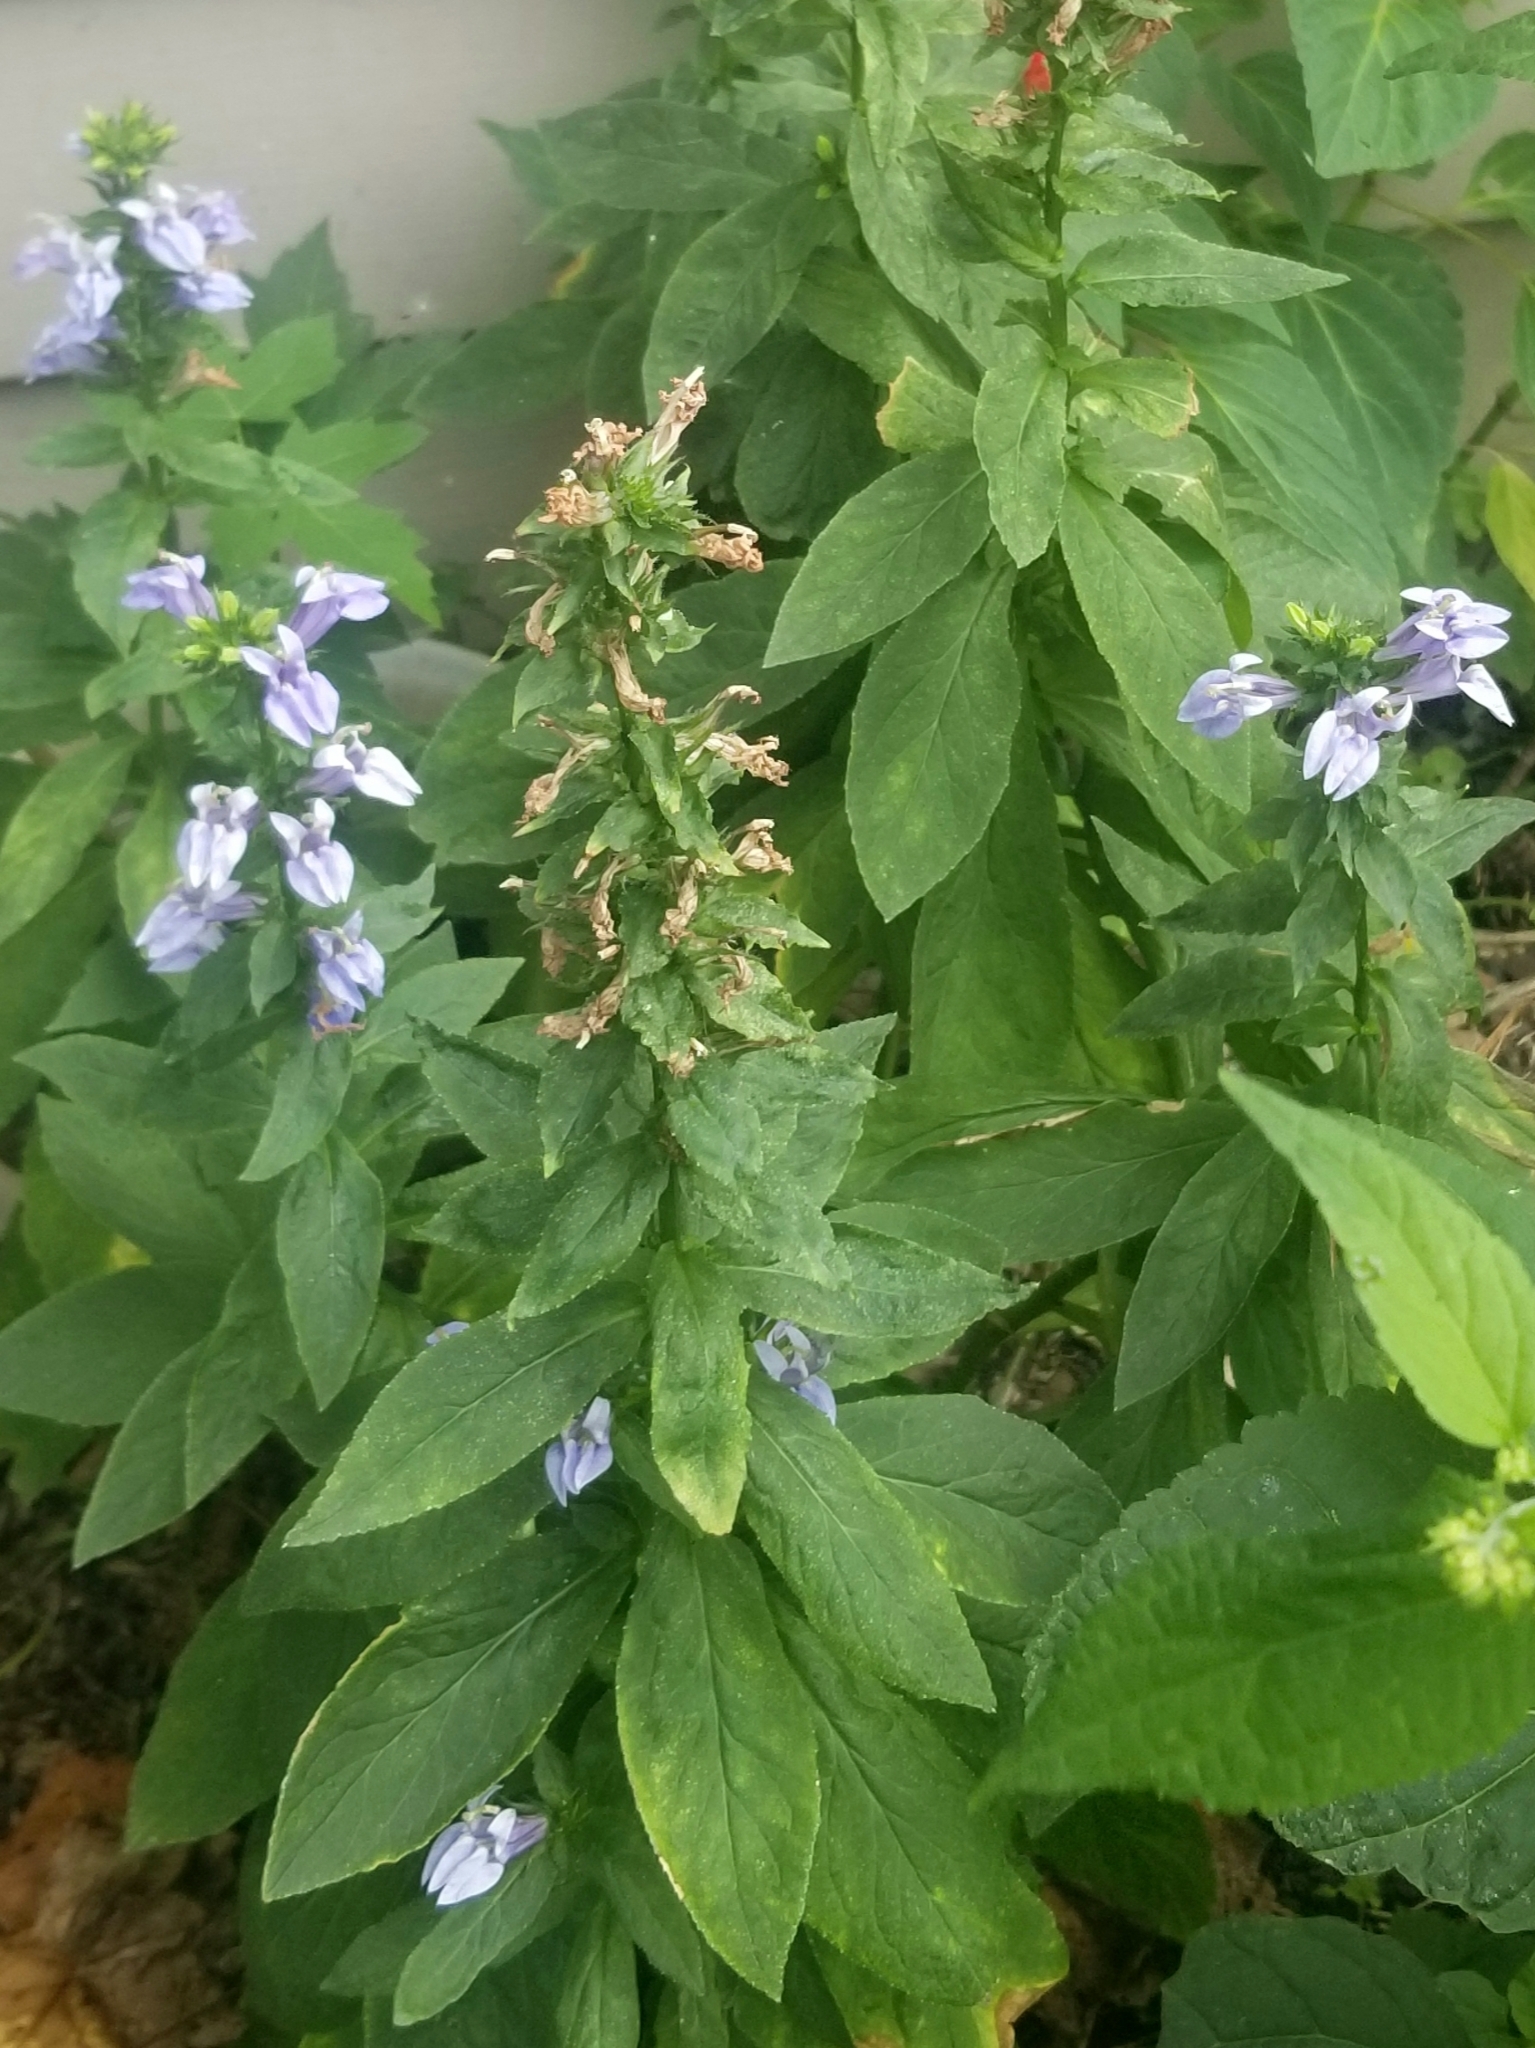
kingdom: Plantae
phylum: Tracheophyta
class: Magnoliopsida
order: Asterales
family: Campanulaceae
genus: Lobelia
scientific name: Lobelia siphilitica
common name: Great lobelia
